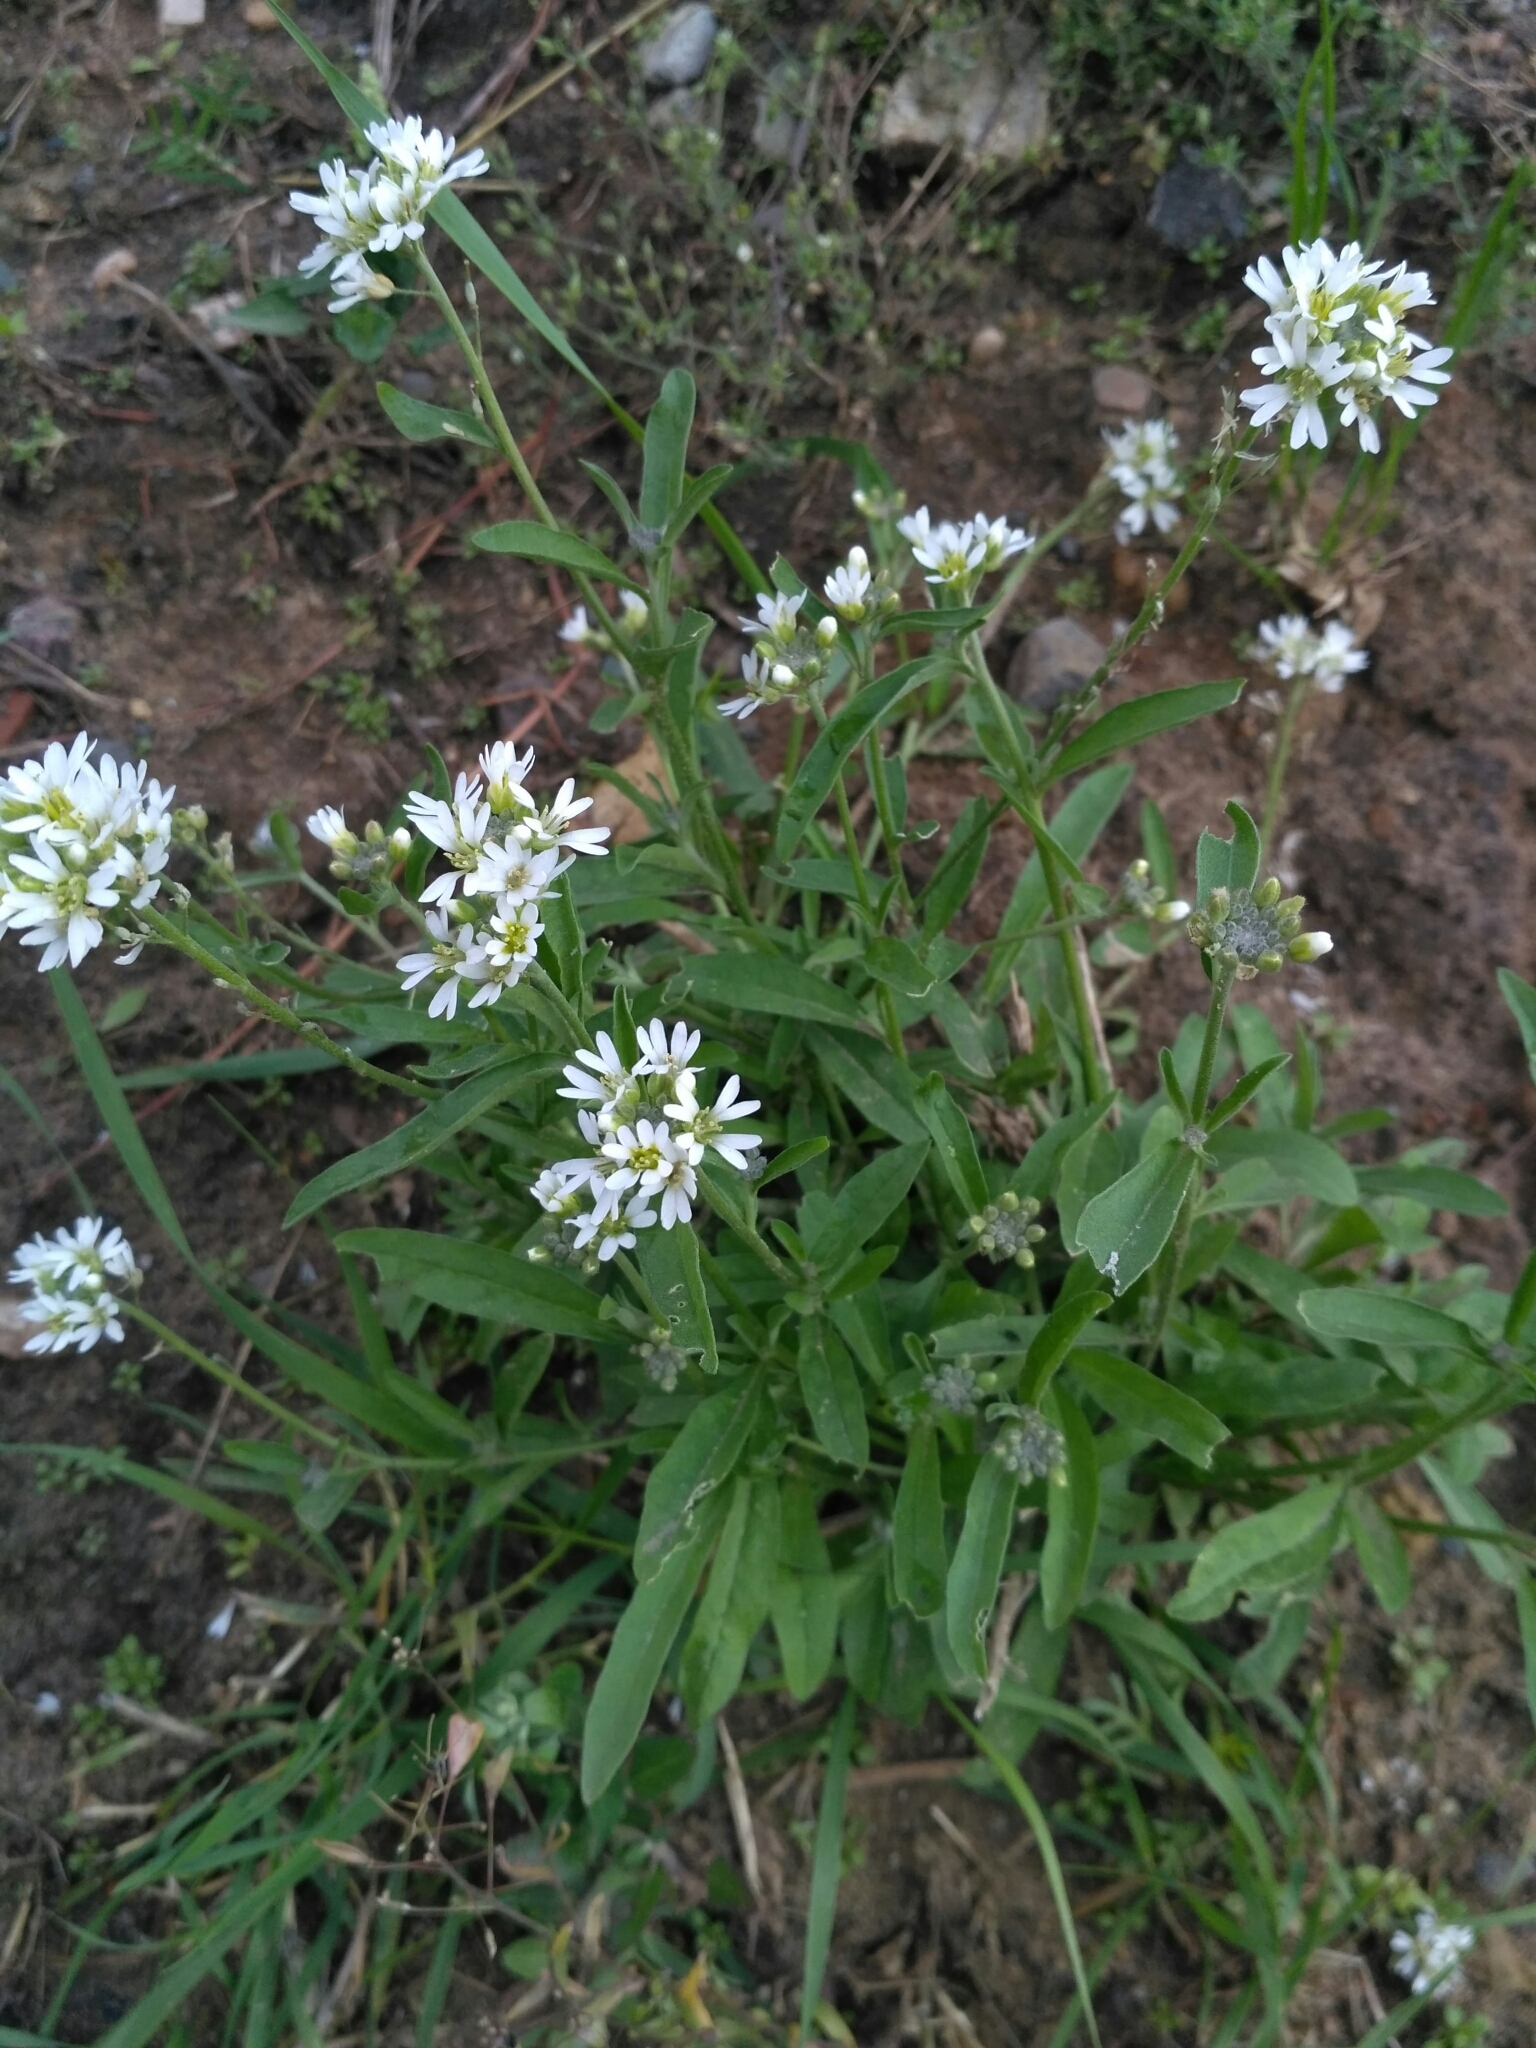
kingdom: Plantae
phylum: Tracheophyta
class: Magnoliopsida
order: Brassicales
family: Brassicaceae
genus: Berteroa
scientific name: Berteroa incana
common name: Hoary alison
